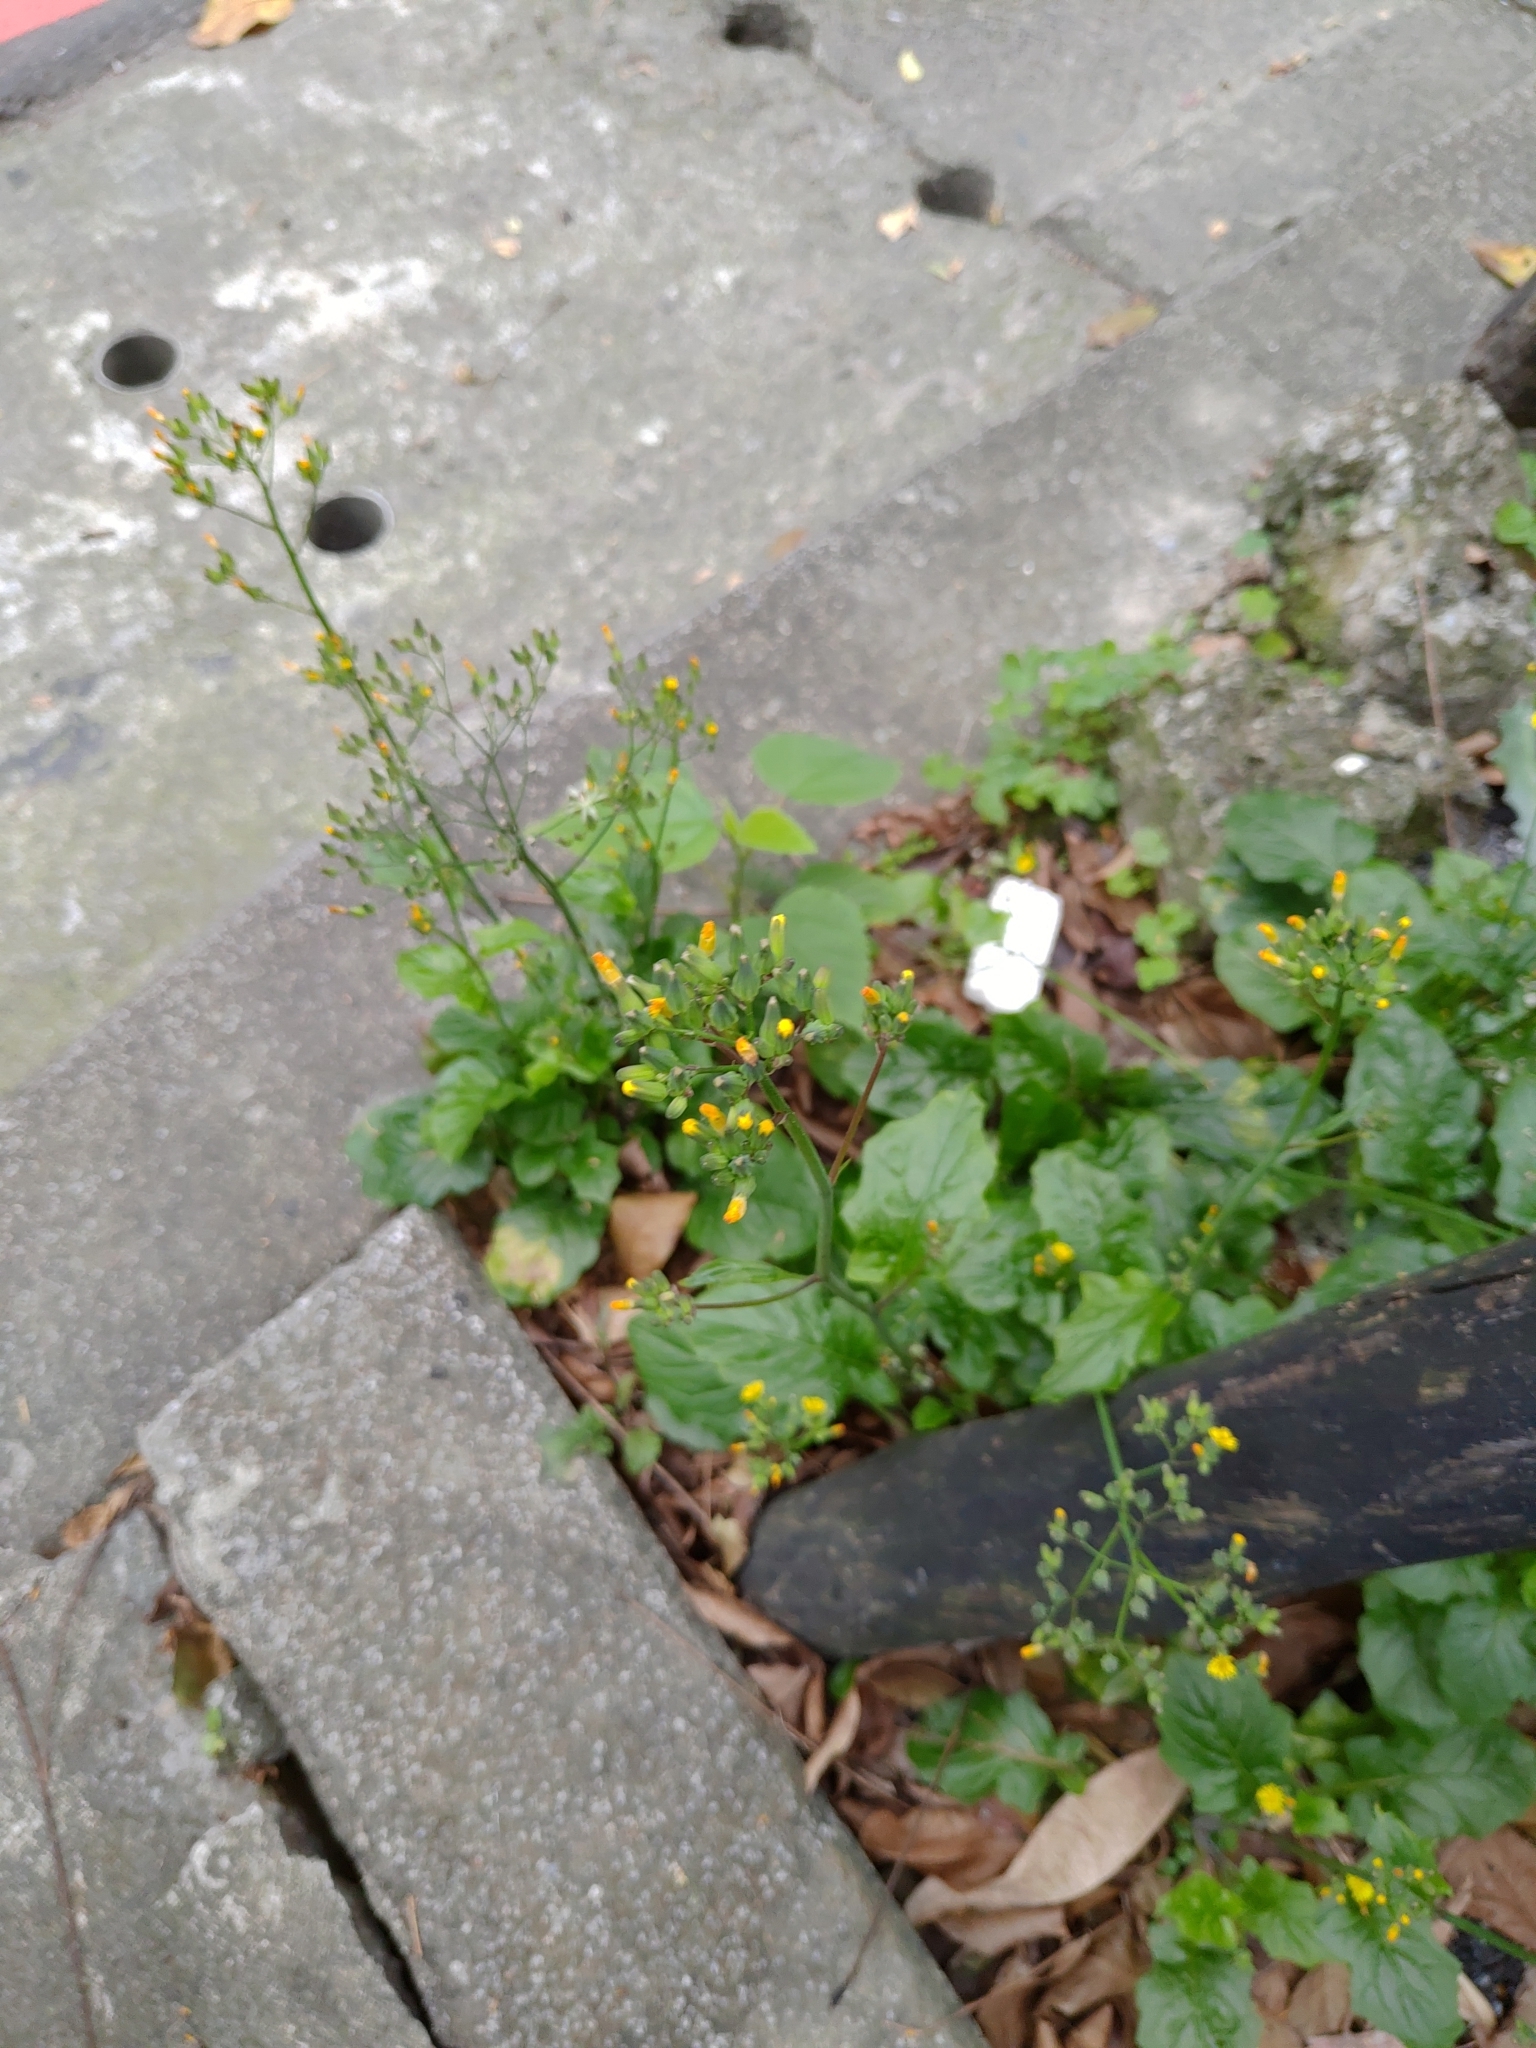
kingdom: Plantae
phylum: Tracheophyta
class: Magnoliopsida
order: Asterales
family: Asteraceae
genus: Youngia
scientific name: Youngia japonica
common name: Oriental false hawksbeard
